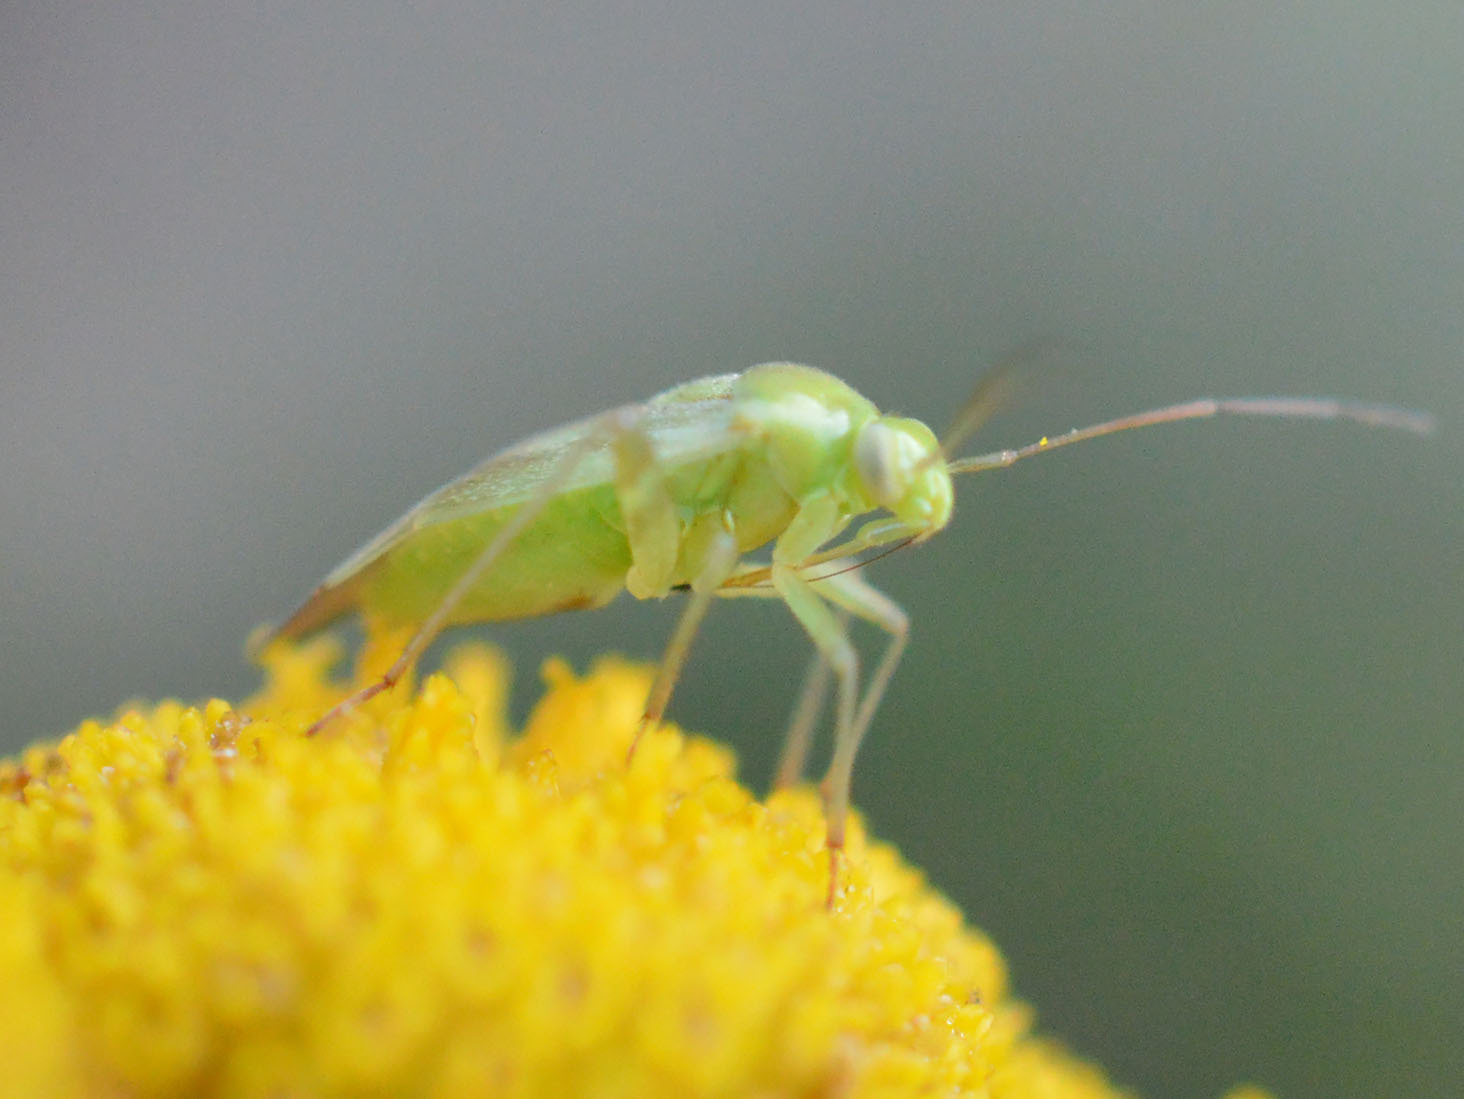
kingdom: Animalia
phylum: Arthropoda
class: Insecta
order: Hemiptera
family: Miridae
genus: Taylorilygus
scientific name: Taylorilygus apicalis
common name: Plant bug
